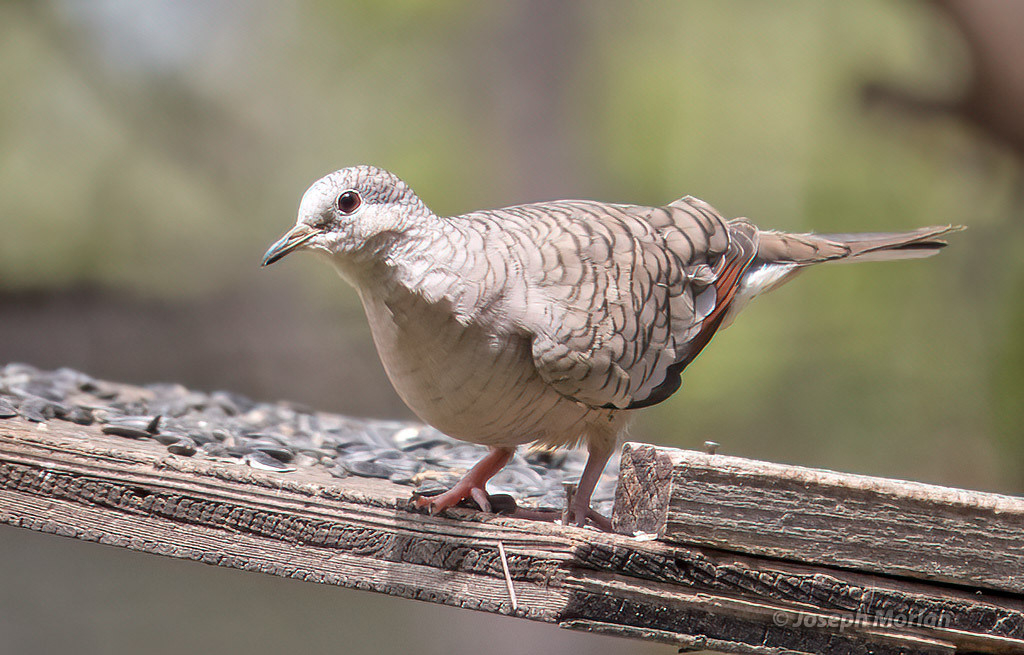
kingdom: Animalia
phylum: Chordata
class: Aves
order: Columbiformes
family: Columbidae
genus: Columbina
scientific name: Columbina inca
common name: Inca dove
